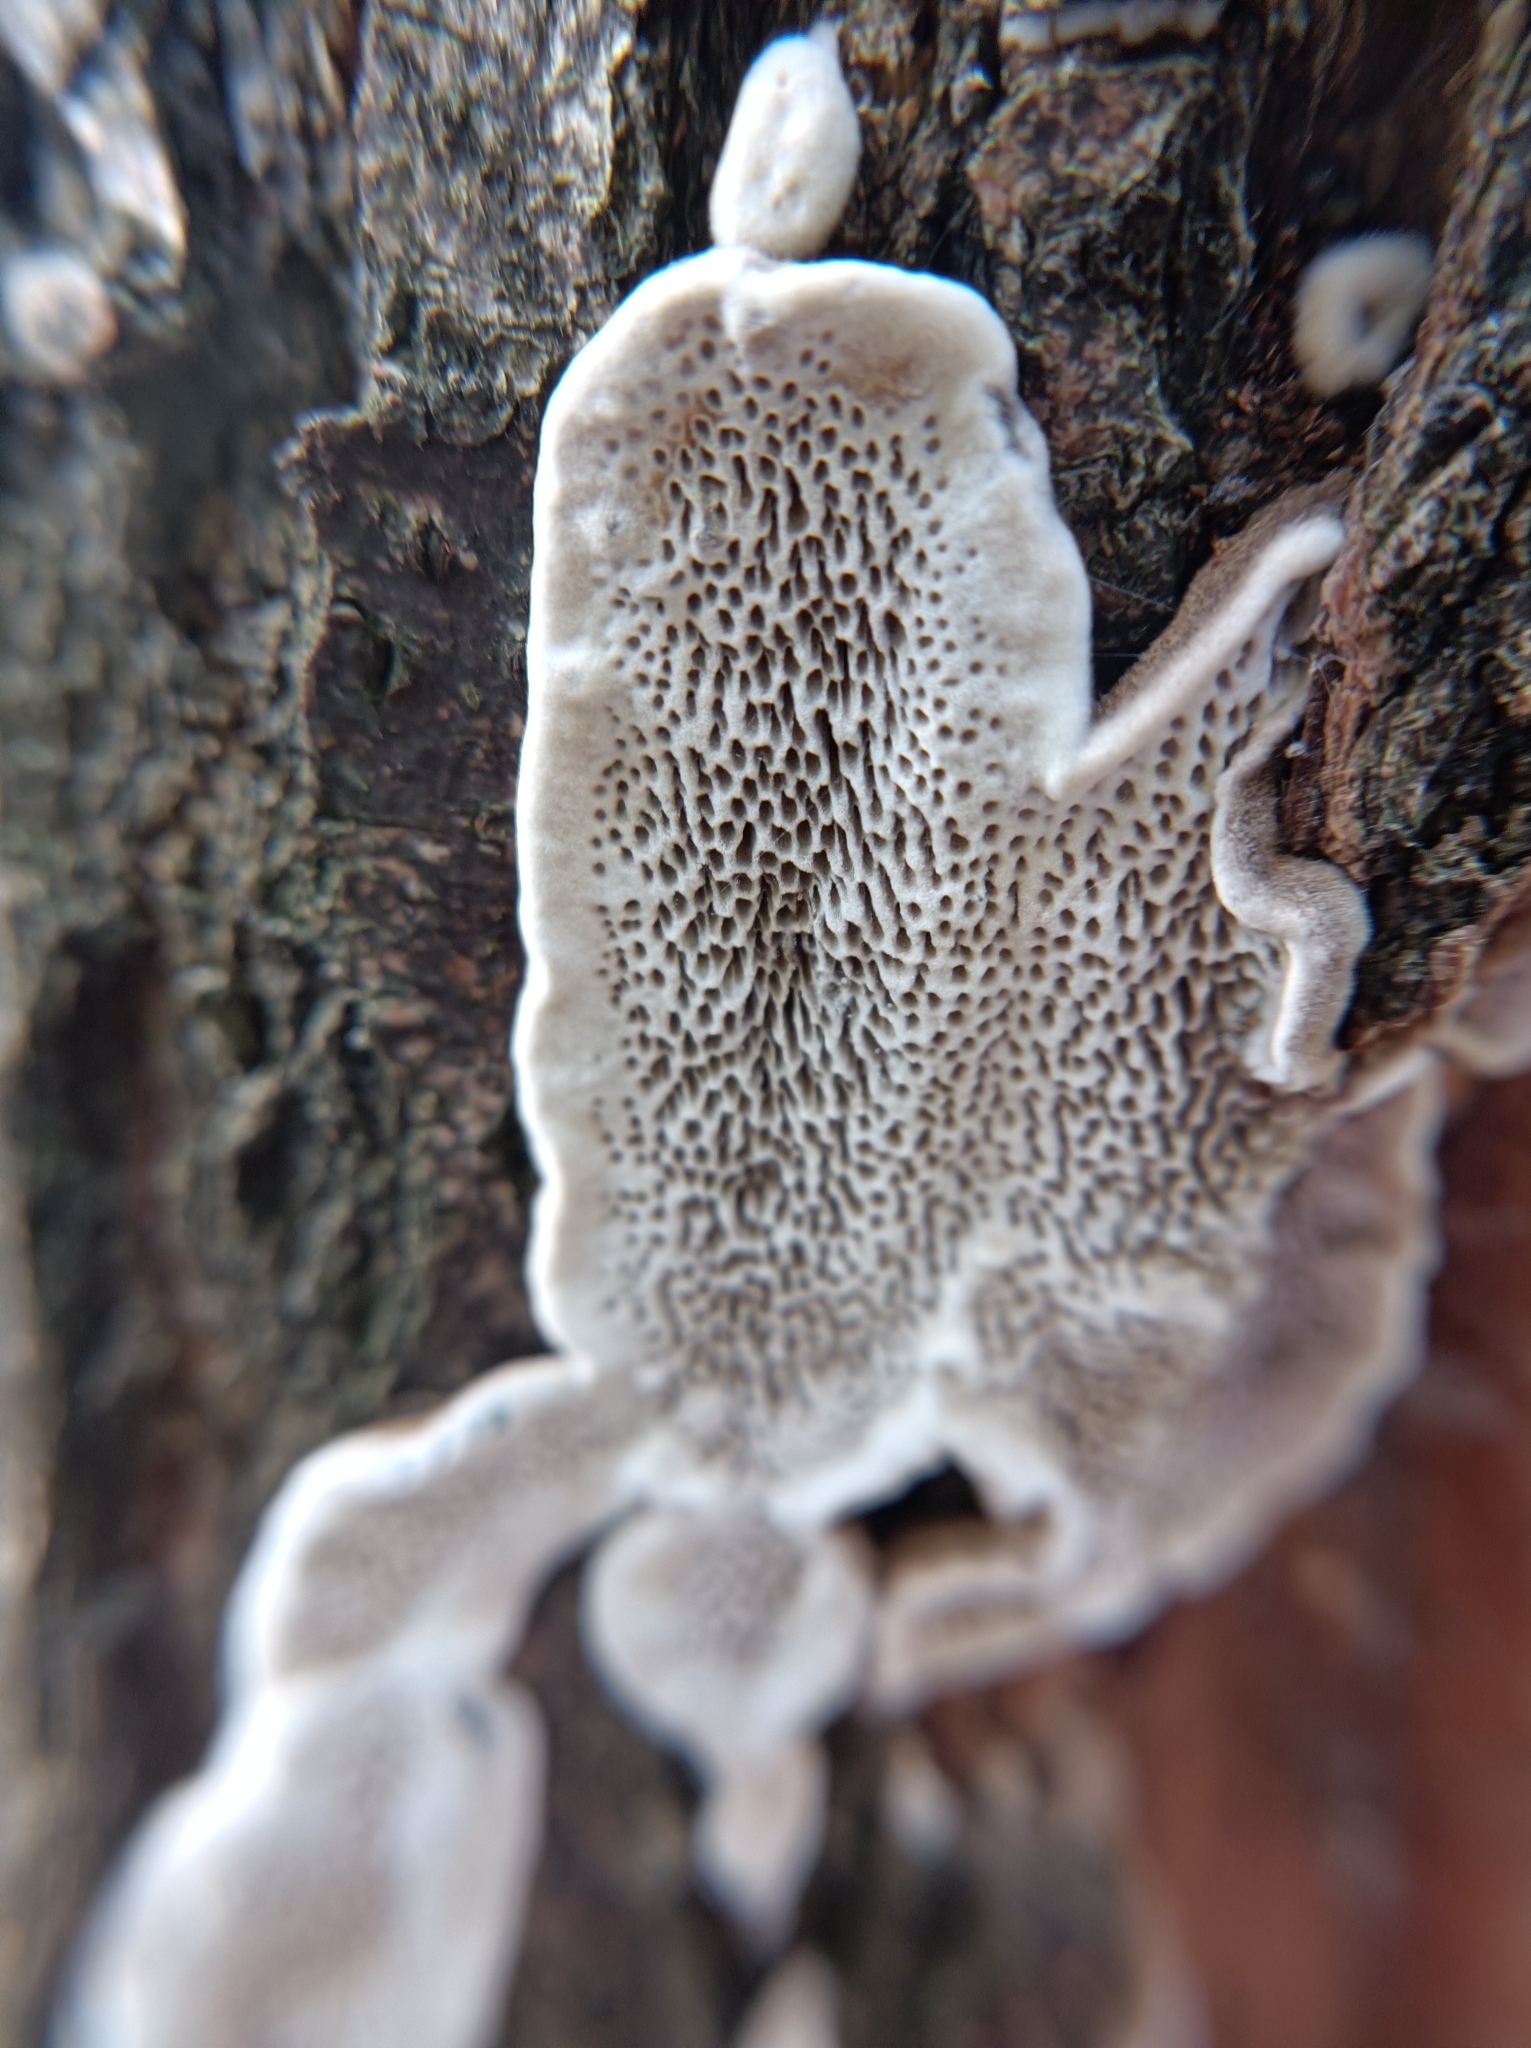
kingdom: Fungi
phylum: Basidiomycota
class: Agaricomycetes
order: Polyporales
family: Polyporaceae
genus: Podofomes
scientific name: Podofomes mollis
